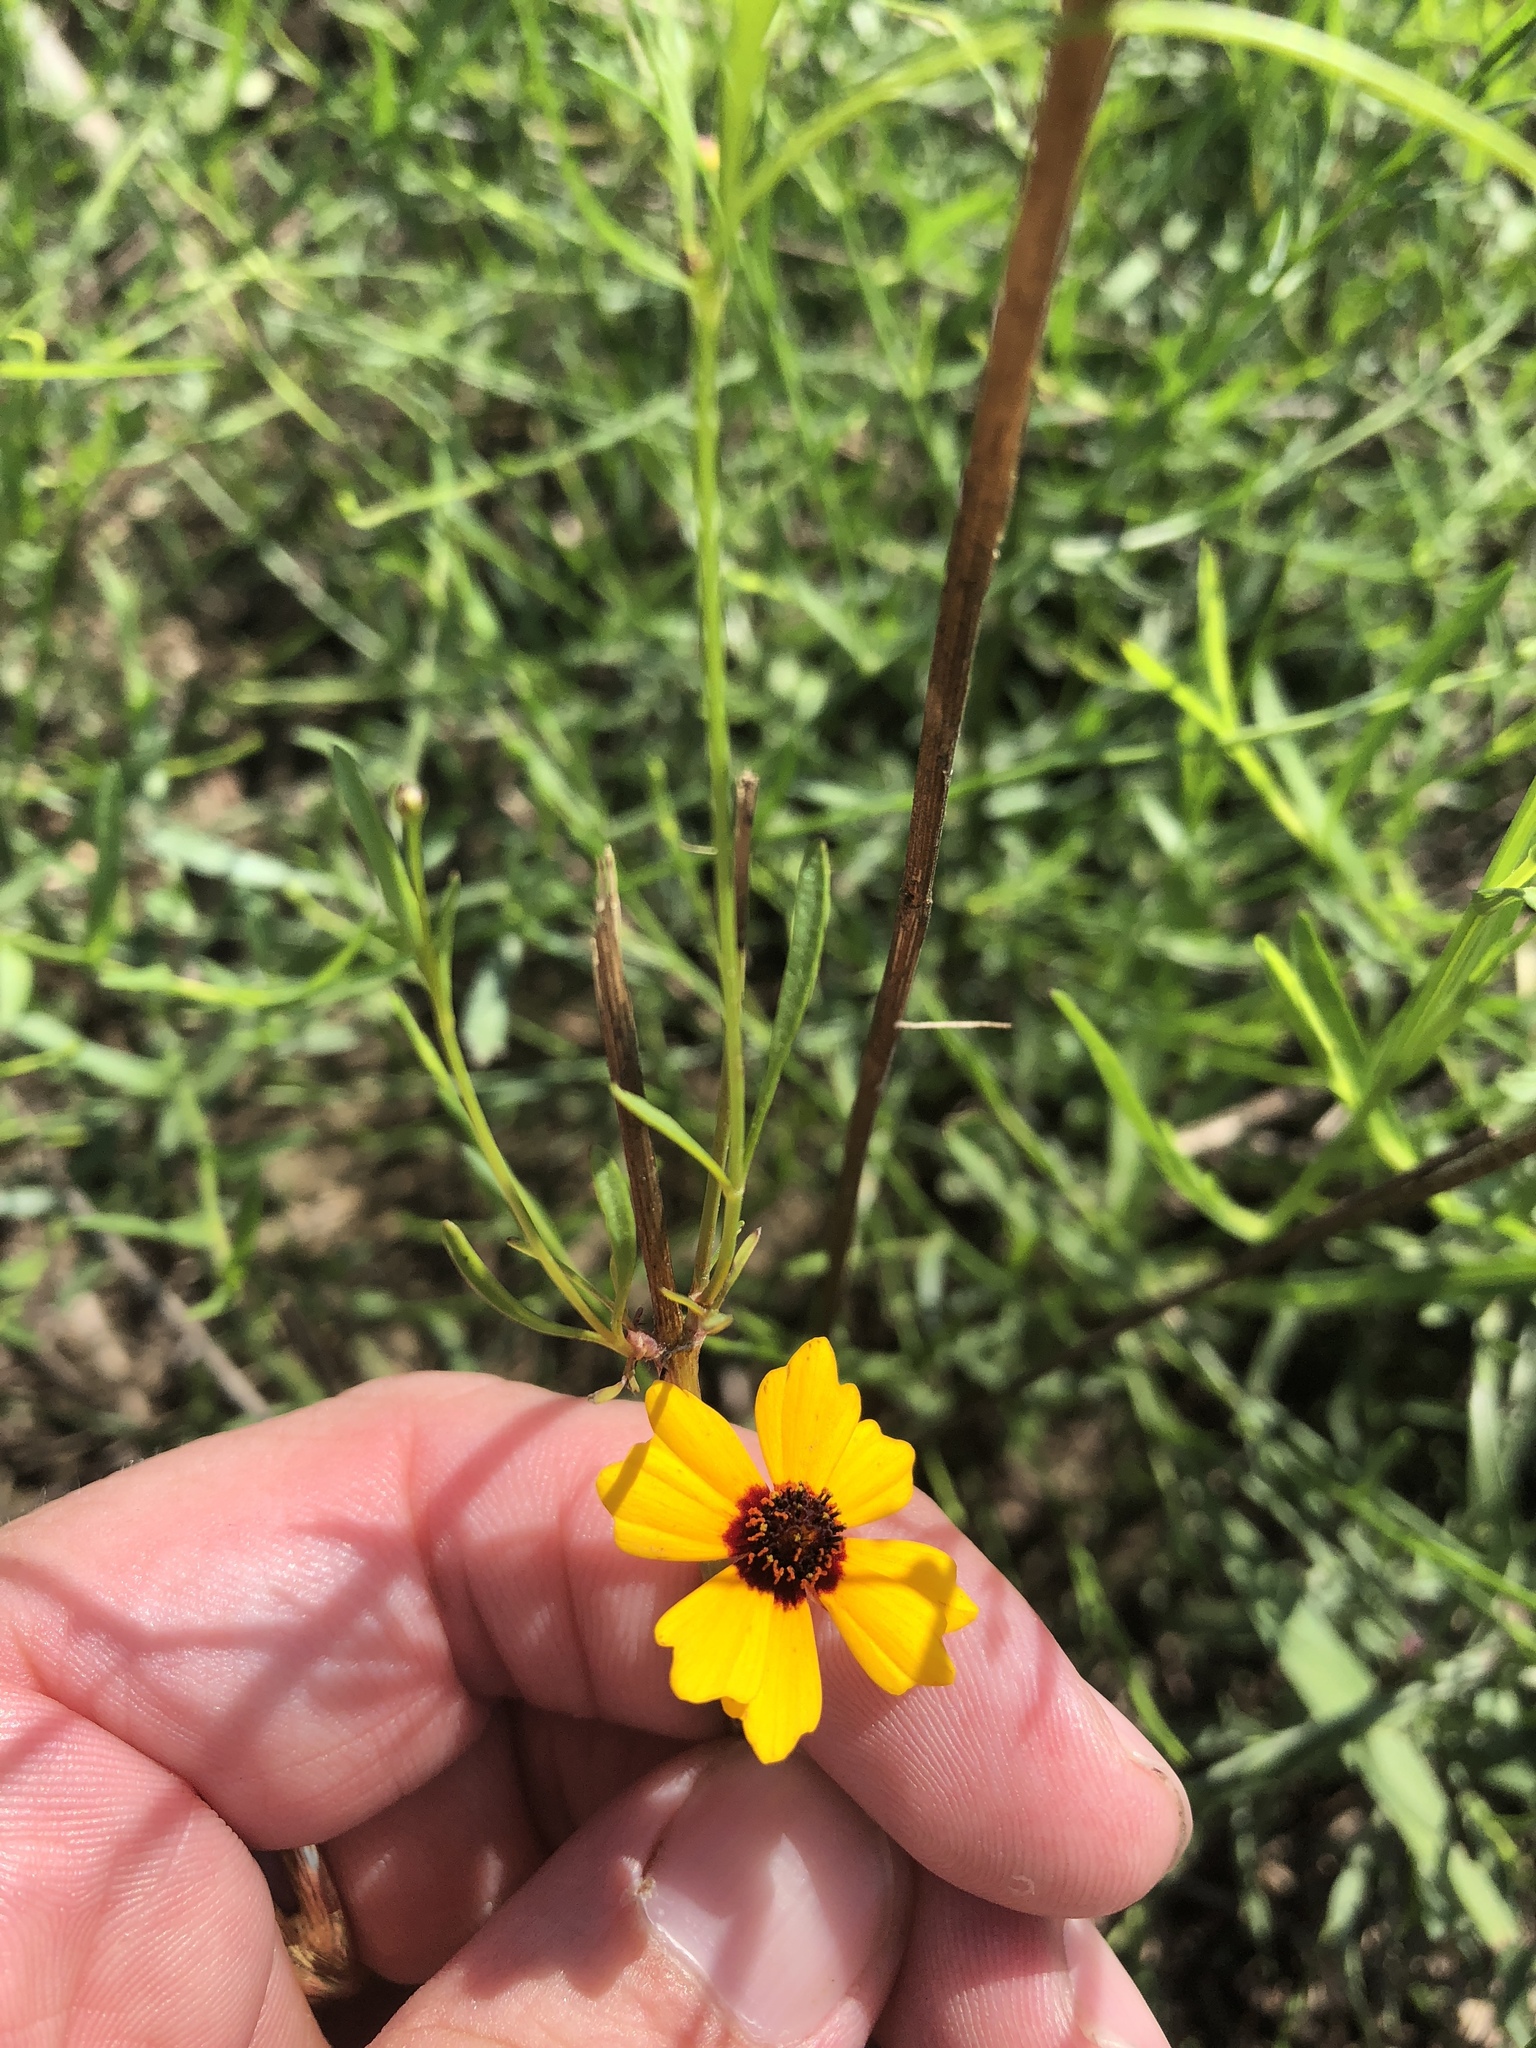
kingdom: Plantae
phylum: Tracheophyta
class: Magnoliopsida
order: Asterales
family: Asteraceae
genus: Coreopsis
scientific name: Coreopsis tinctoria
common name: Garden tickseed
